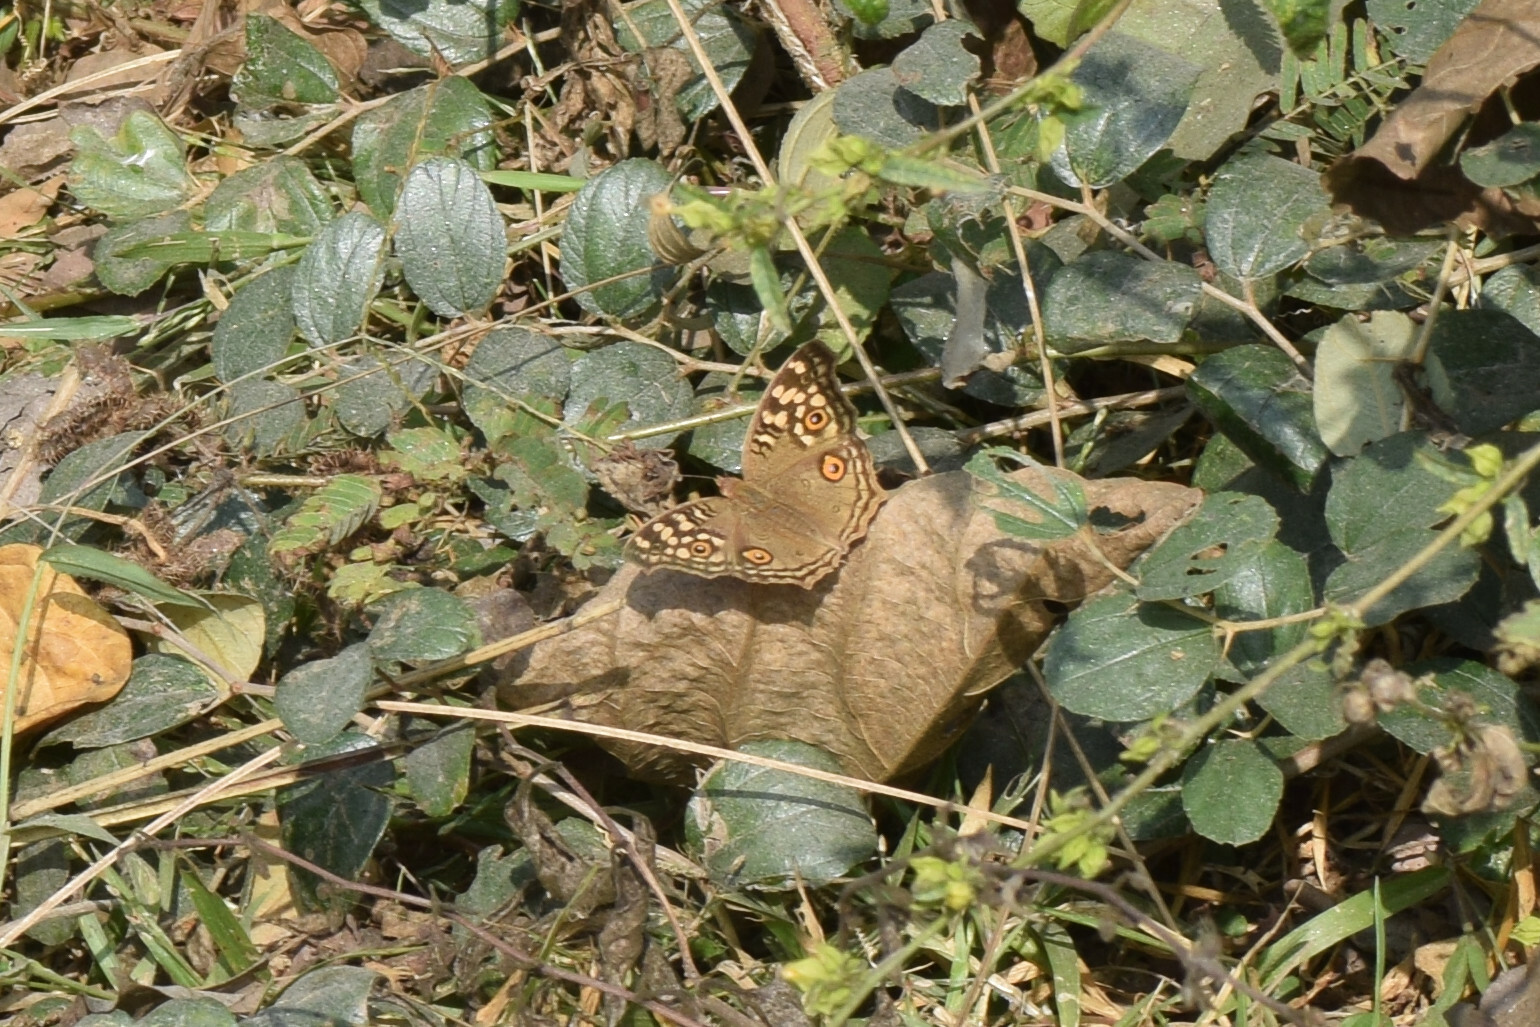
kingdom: Animalia
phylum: Arthropoda
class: Insecta
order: Lepidoptera
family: Nymphalidae
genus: Junonia
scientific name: Junonia lemonias
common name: Lemon pansy
